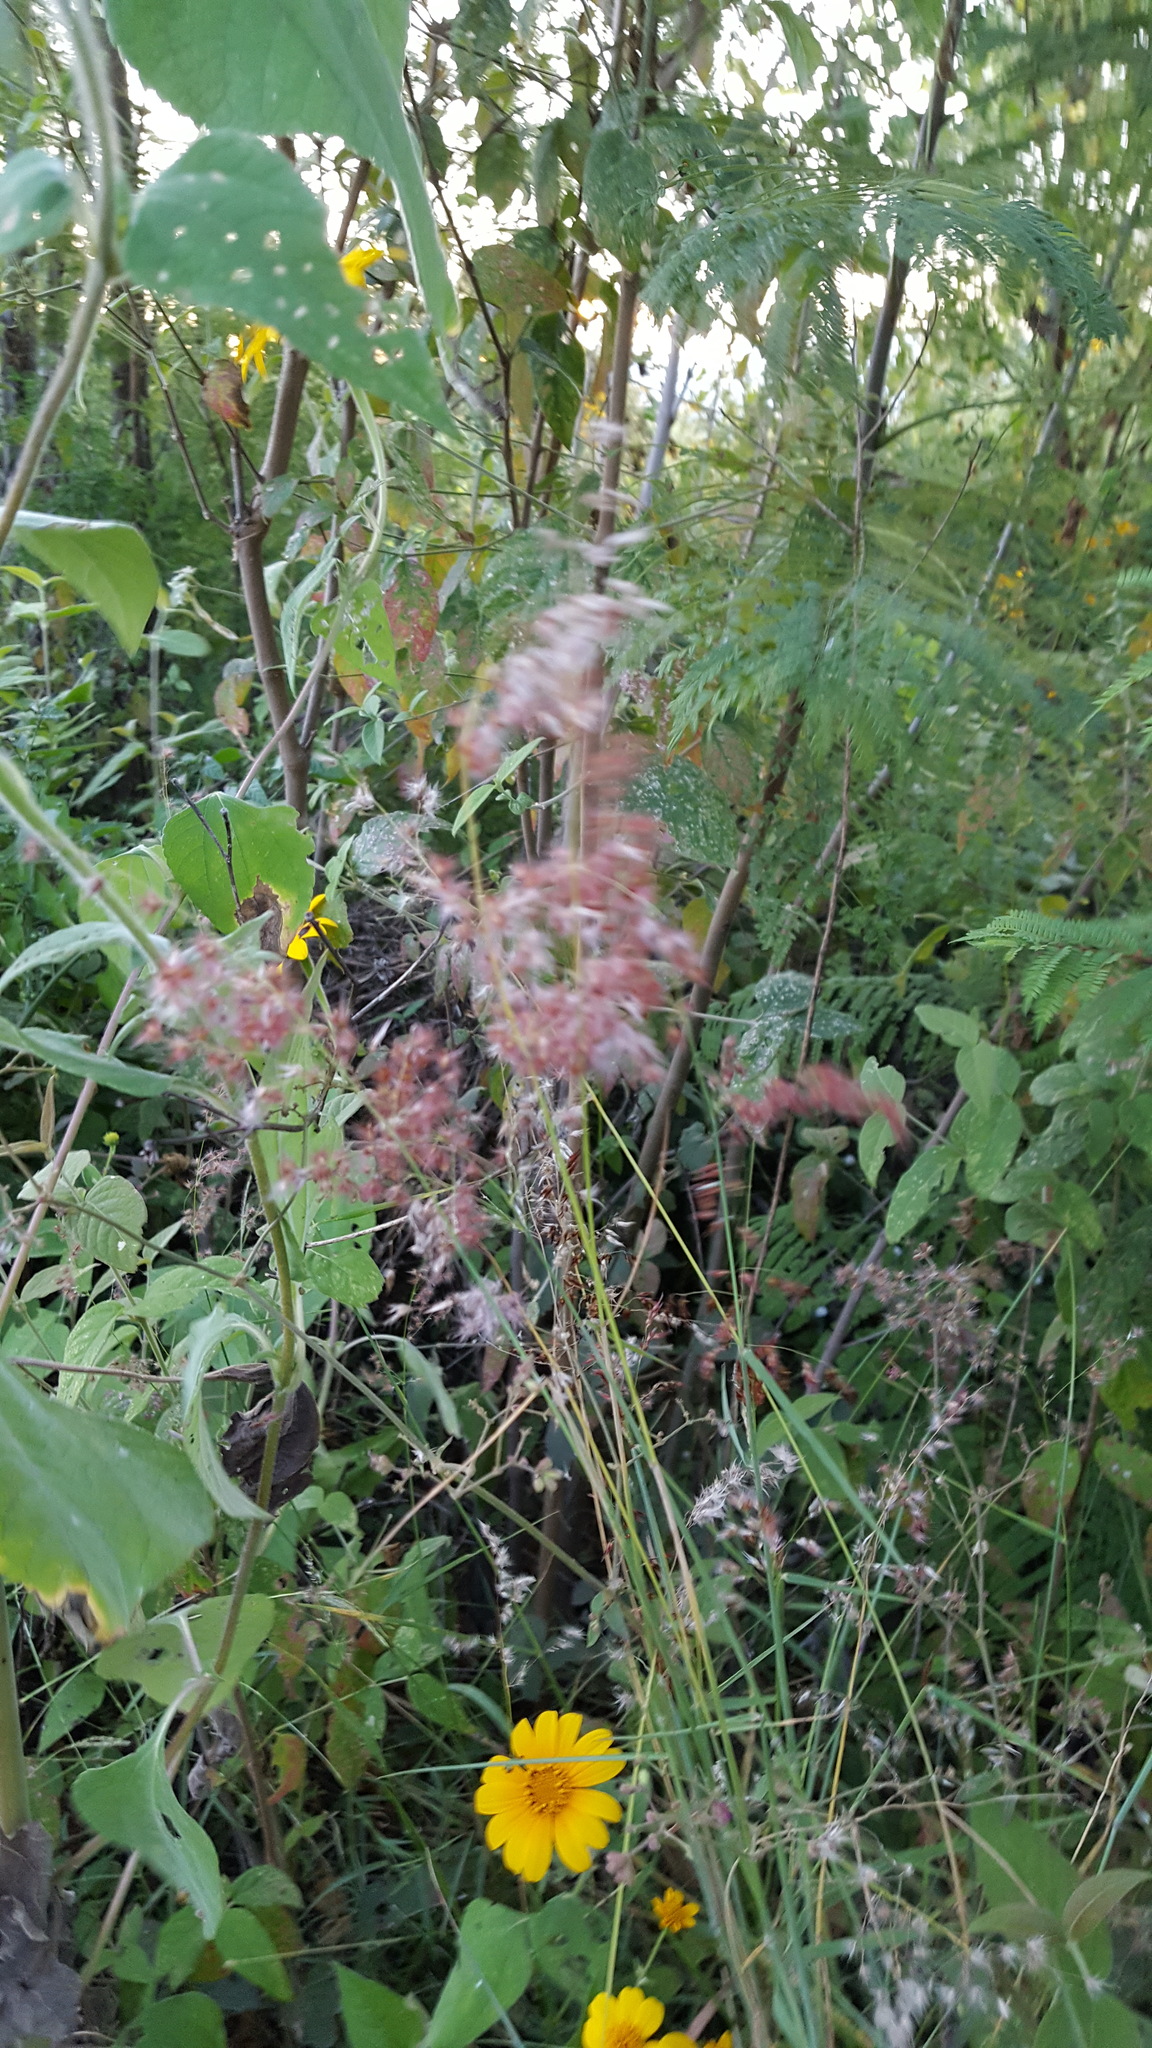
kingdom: Plantae
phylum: Tracheophyta
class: Liliopsida
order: Poales
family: Poaceae
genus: Melinis
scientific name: Melinis repens
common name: Rose natal grass
